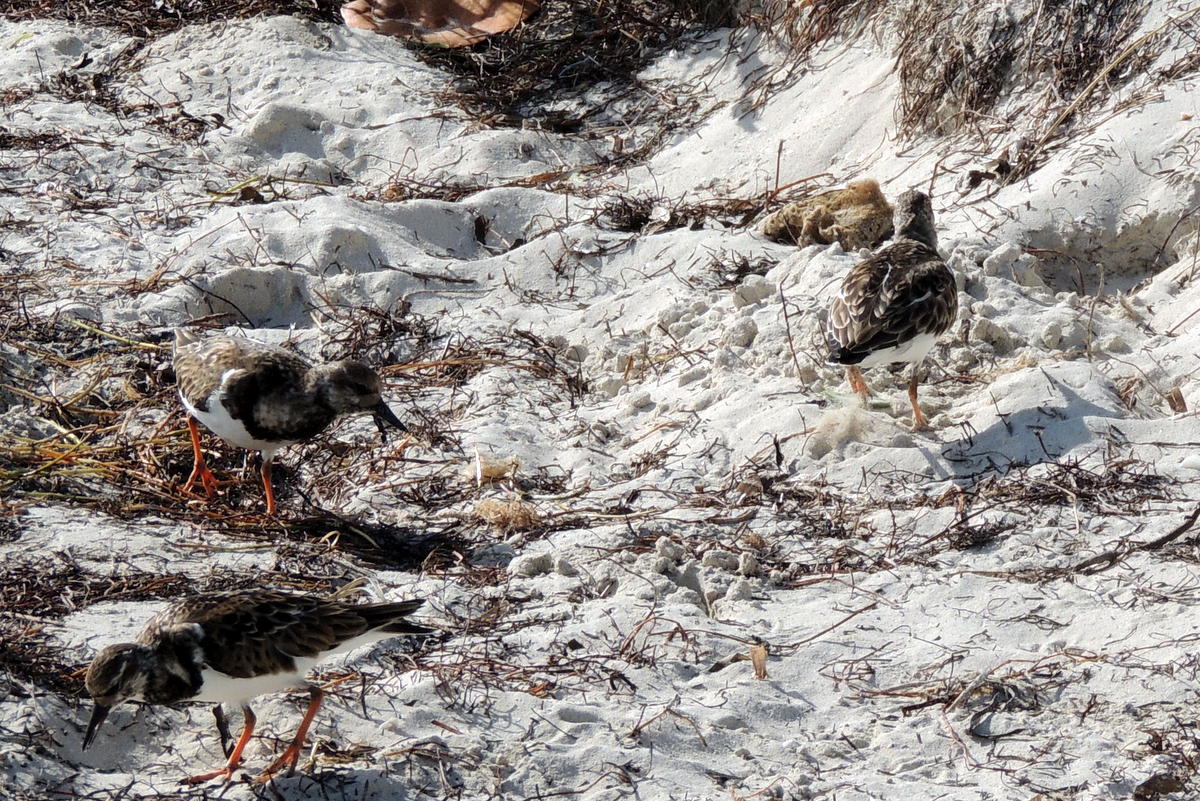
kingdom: Animalia
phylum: Chordata
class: Aves
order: Charadriiformes
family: Scolopacidae
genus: Arenaria
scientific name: Arenaria interpres
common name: Ruddy turnstone
